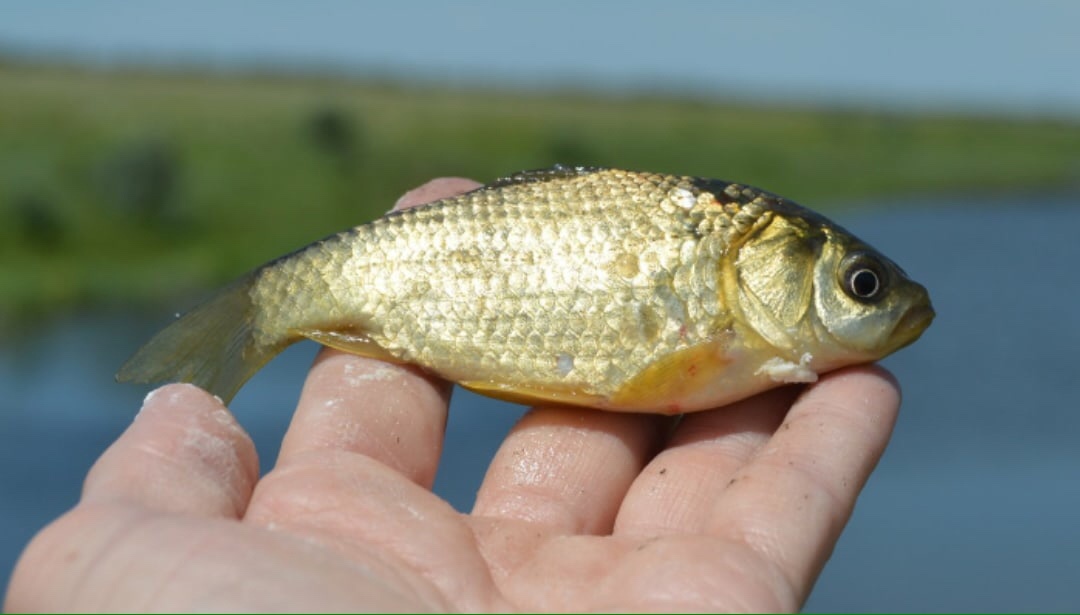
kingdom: Animalia
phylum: Chordata
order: Cypriniformes
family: Cyprinidae
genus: Carassius
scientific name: Carassius gibelio
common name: Prussian carp
